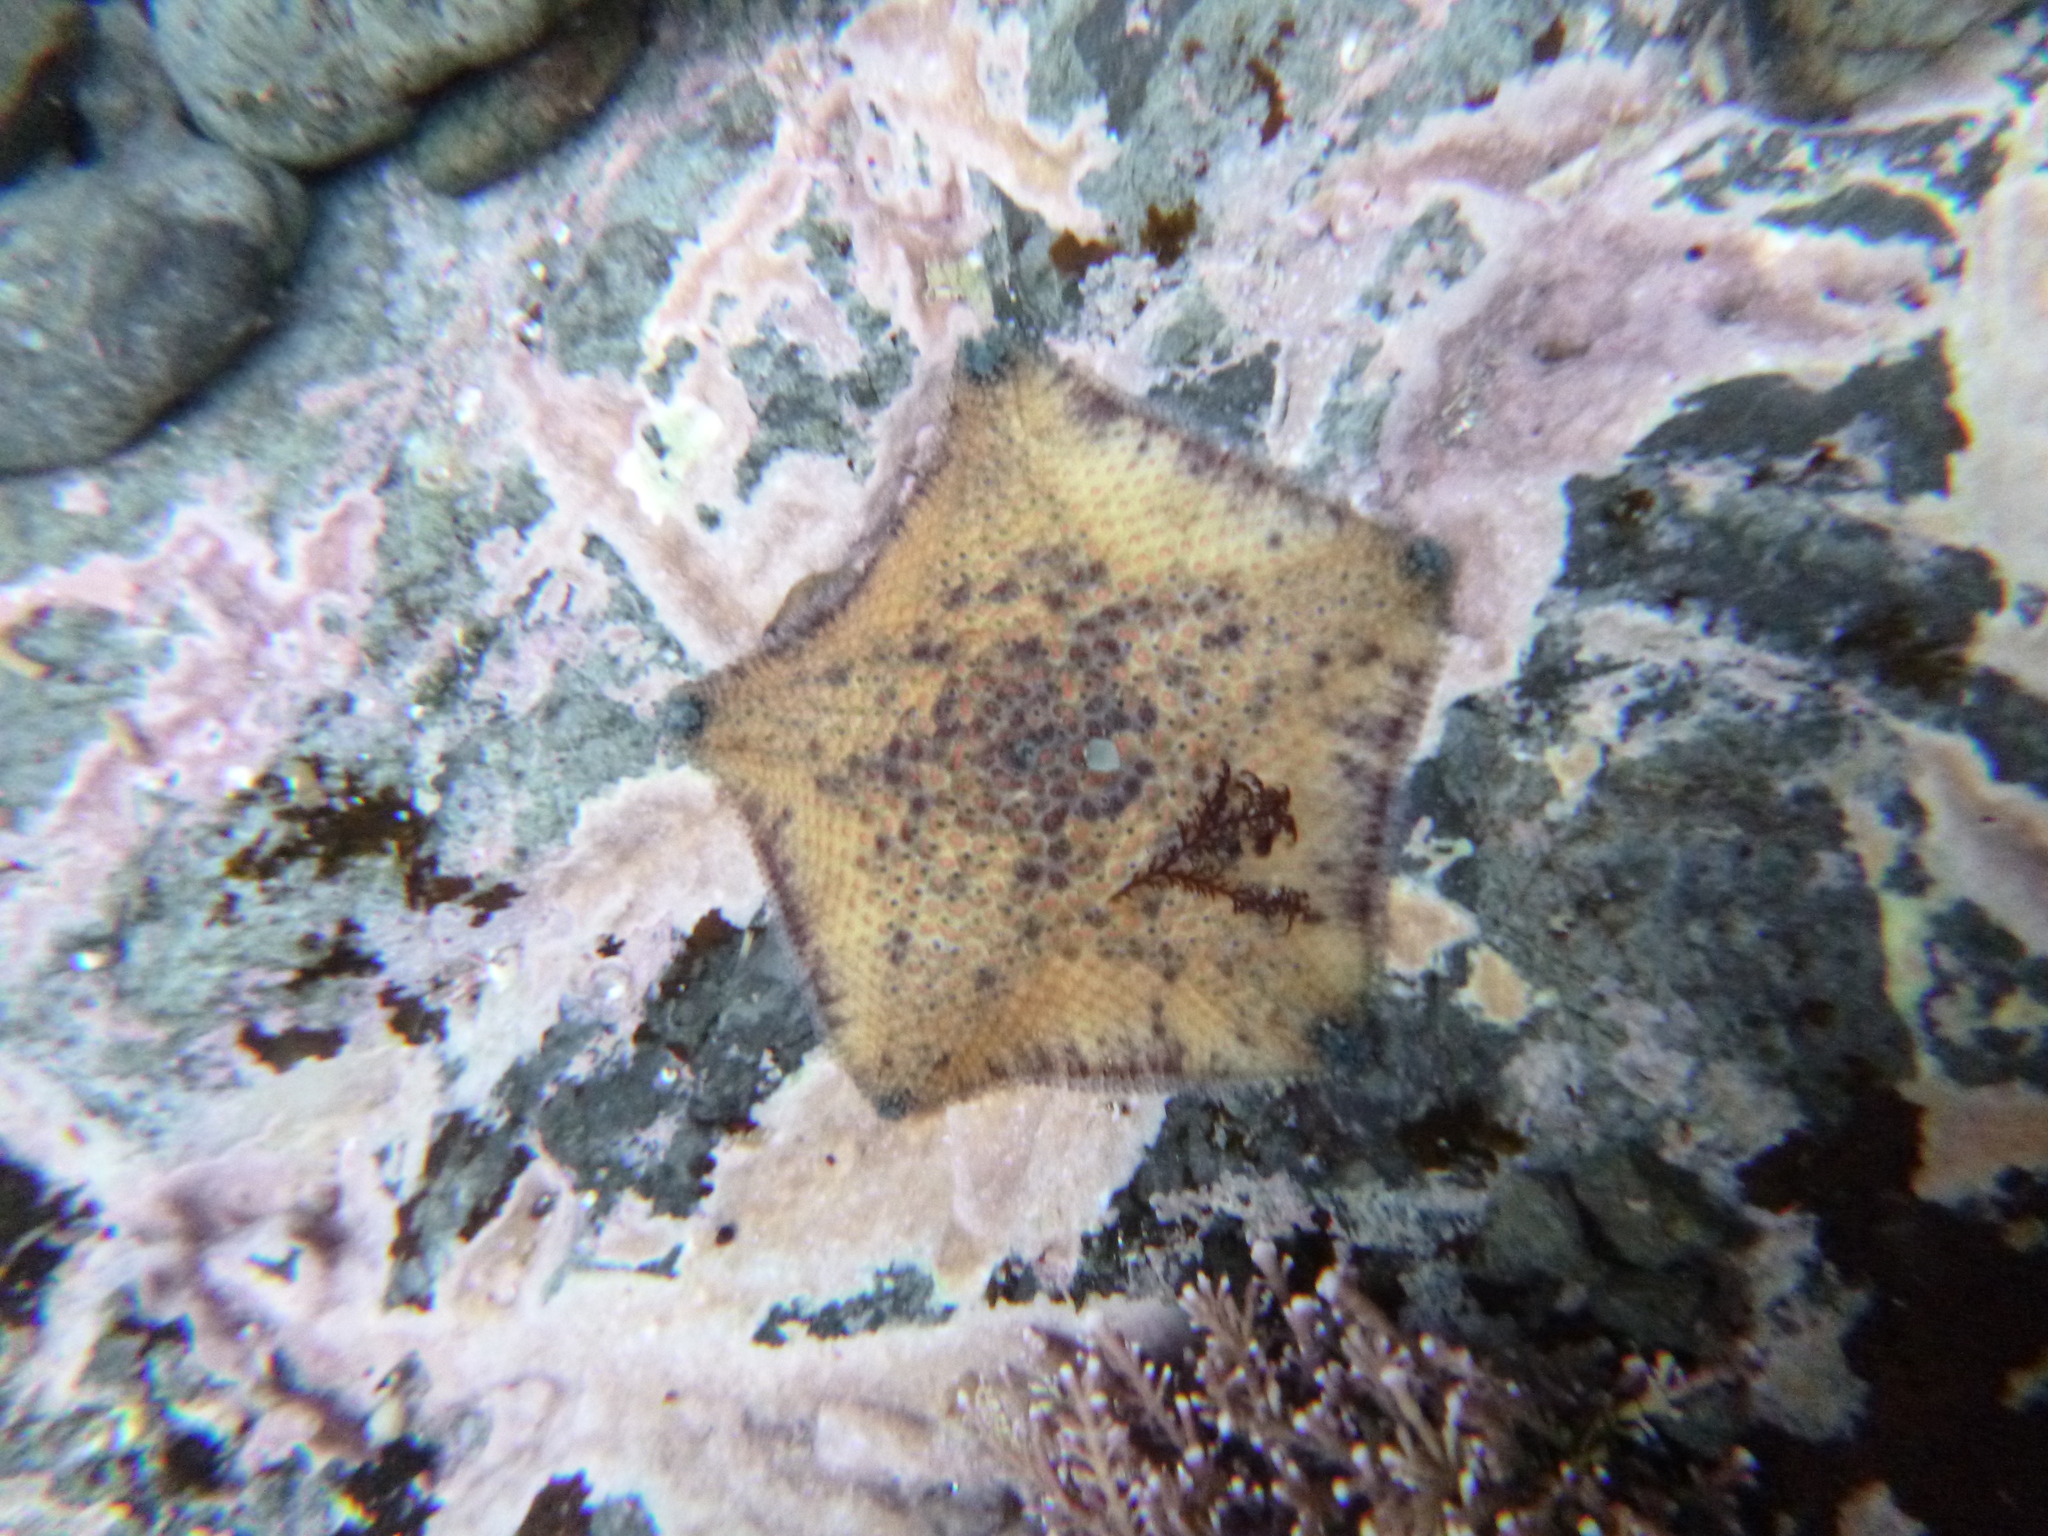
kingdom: Animalia
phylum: Echinodermata
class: Asteroidea
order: Valvatida
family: Asterinidae
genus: Meridiastra
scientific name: Meridiastra mortenseni
